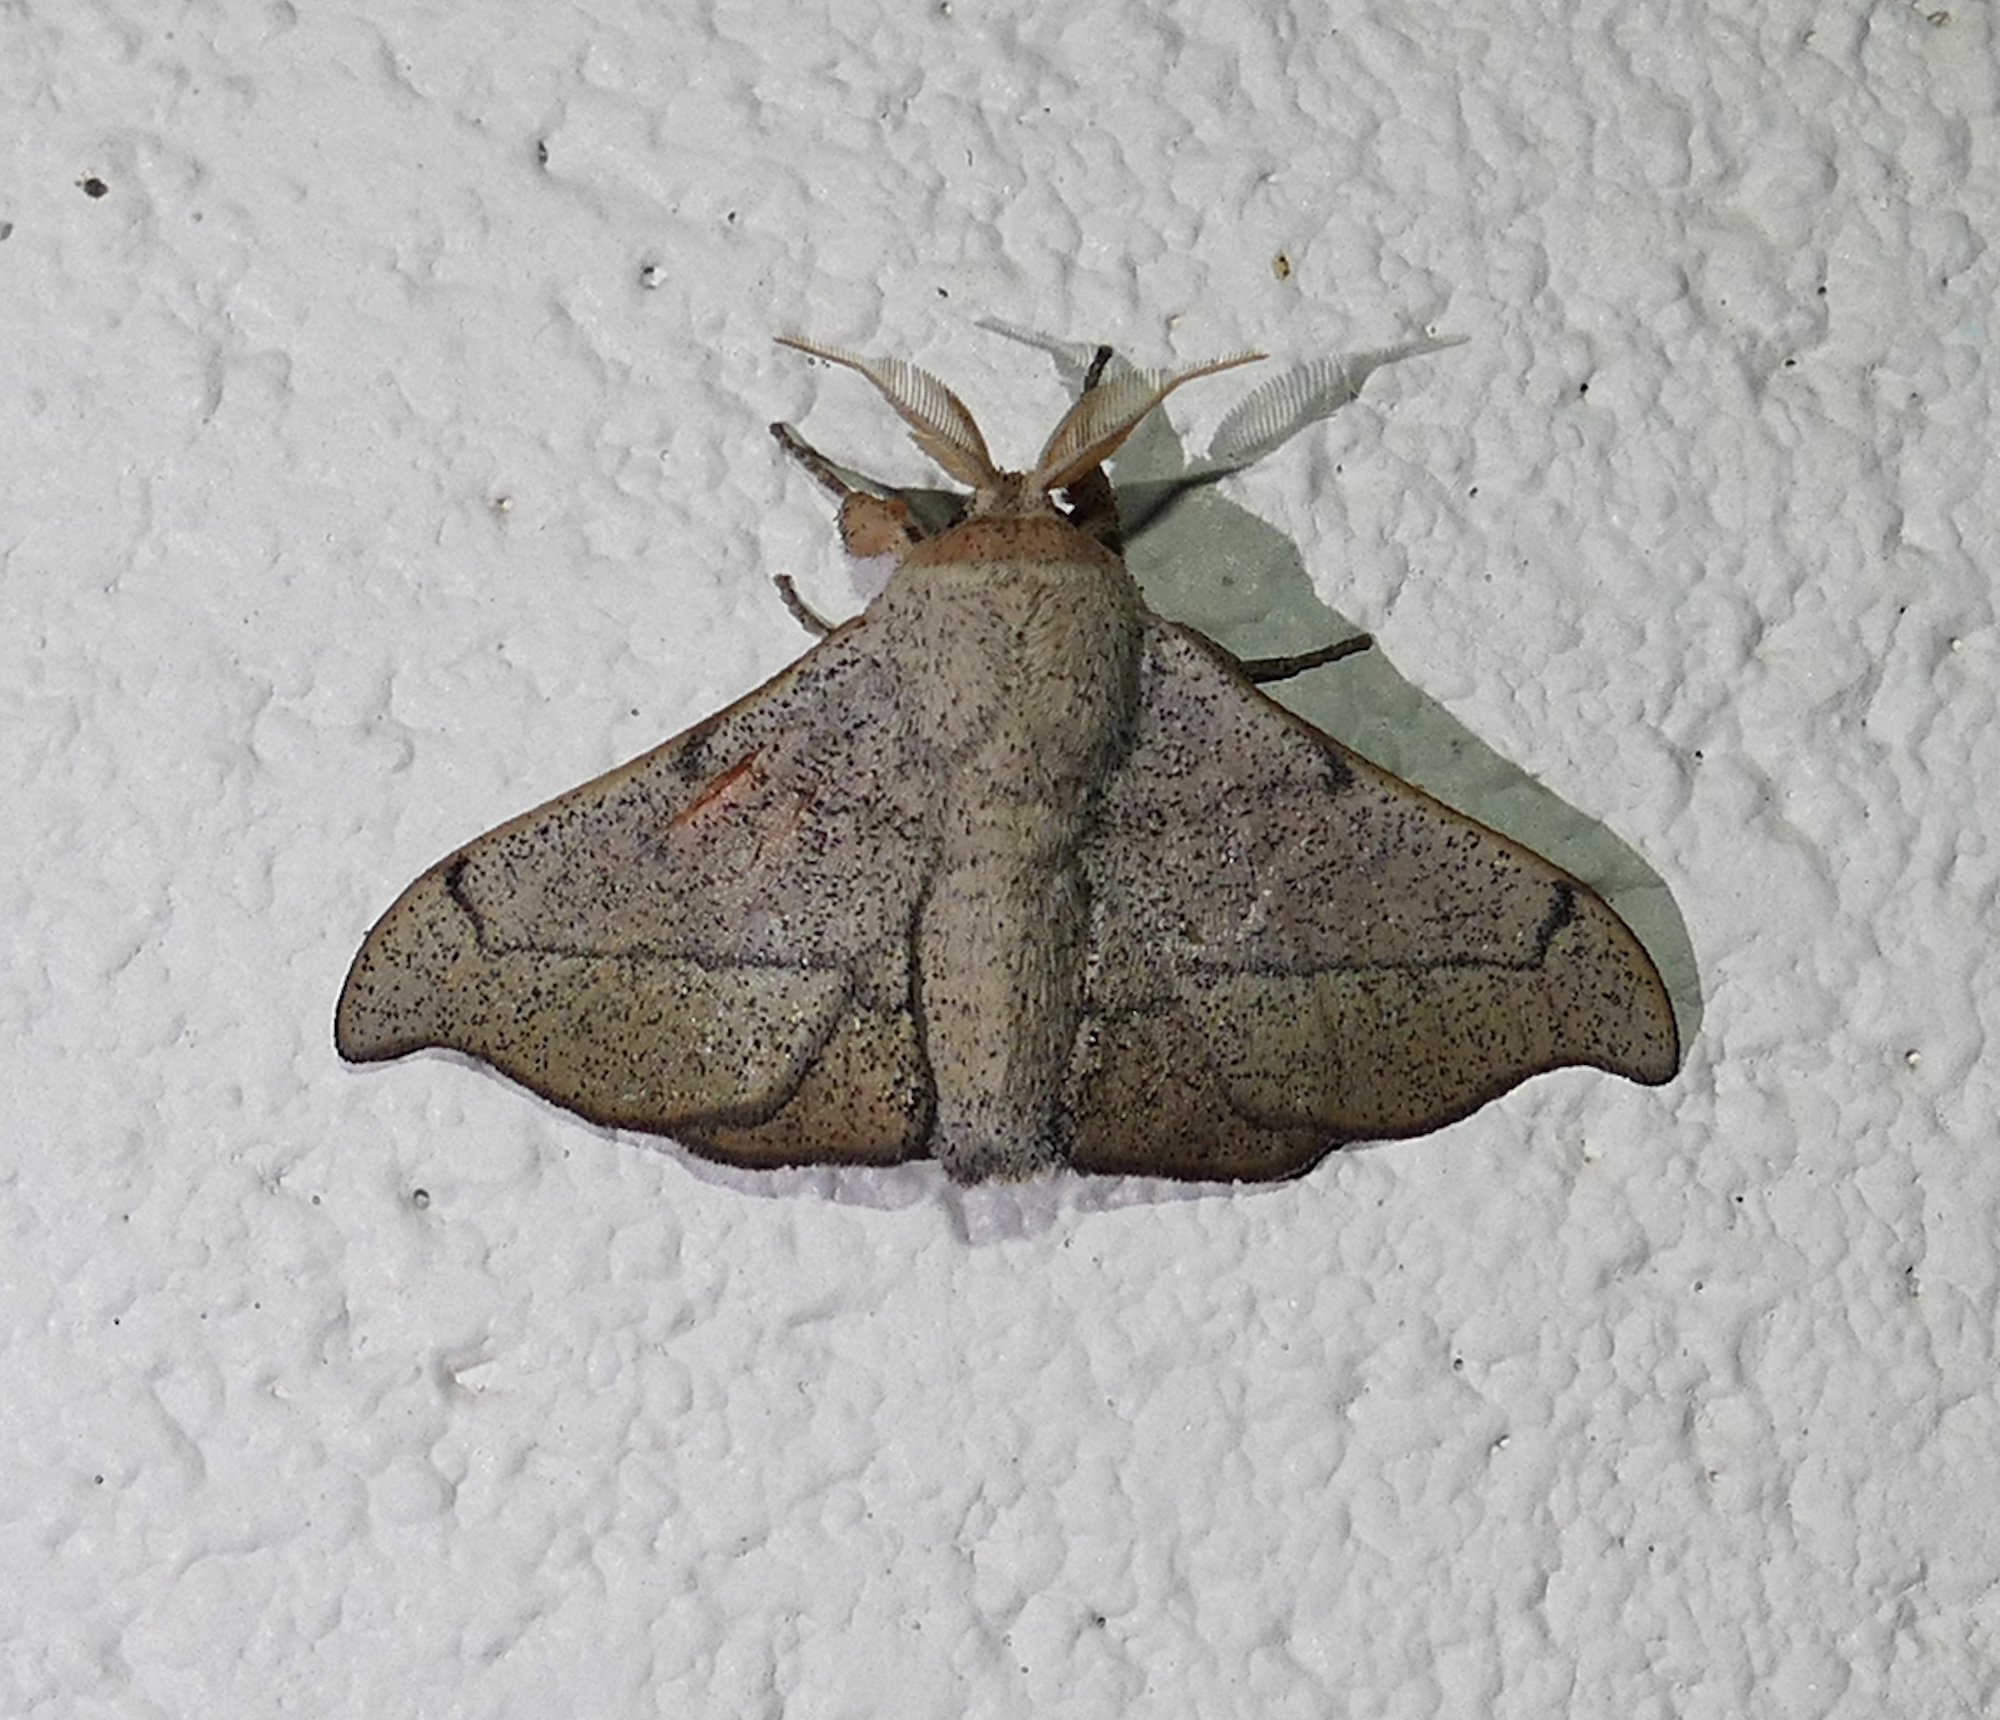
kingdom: Animalia
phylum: Arthropoda
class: Insecta
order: Lepidoptera
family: Mimallonidae
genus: Cicinnus
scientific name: Cicinnus melsheimeri
